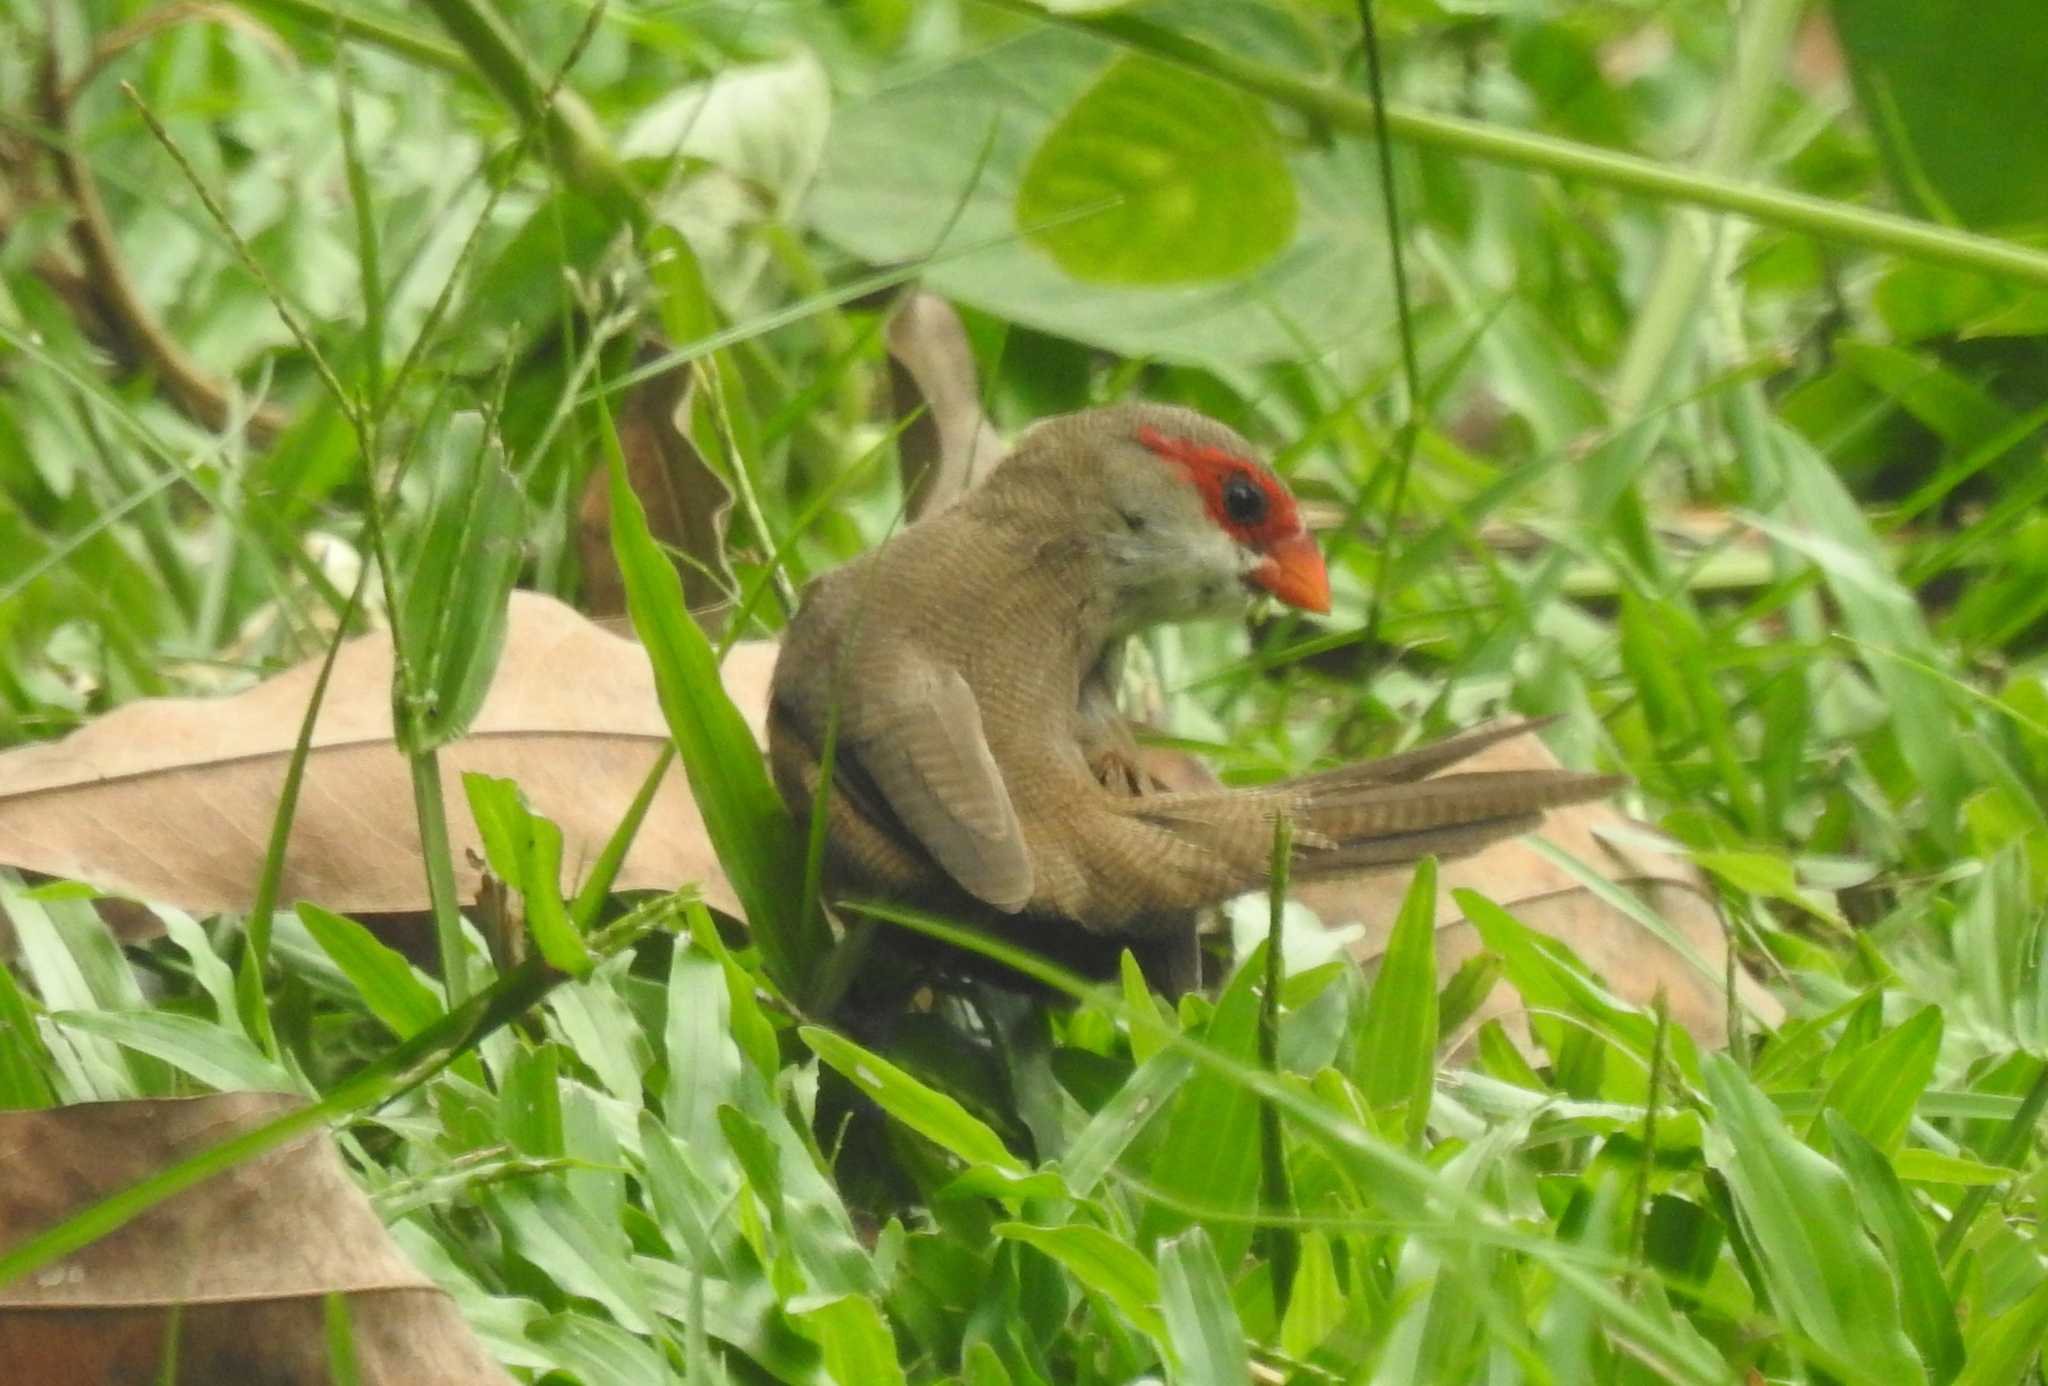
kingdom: Animalia
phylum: Chordata
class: Aves
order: Passeriformes
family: Estrildidae
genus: Estrilda
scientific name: Estrilda astrild
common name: Common waxbill
